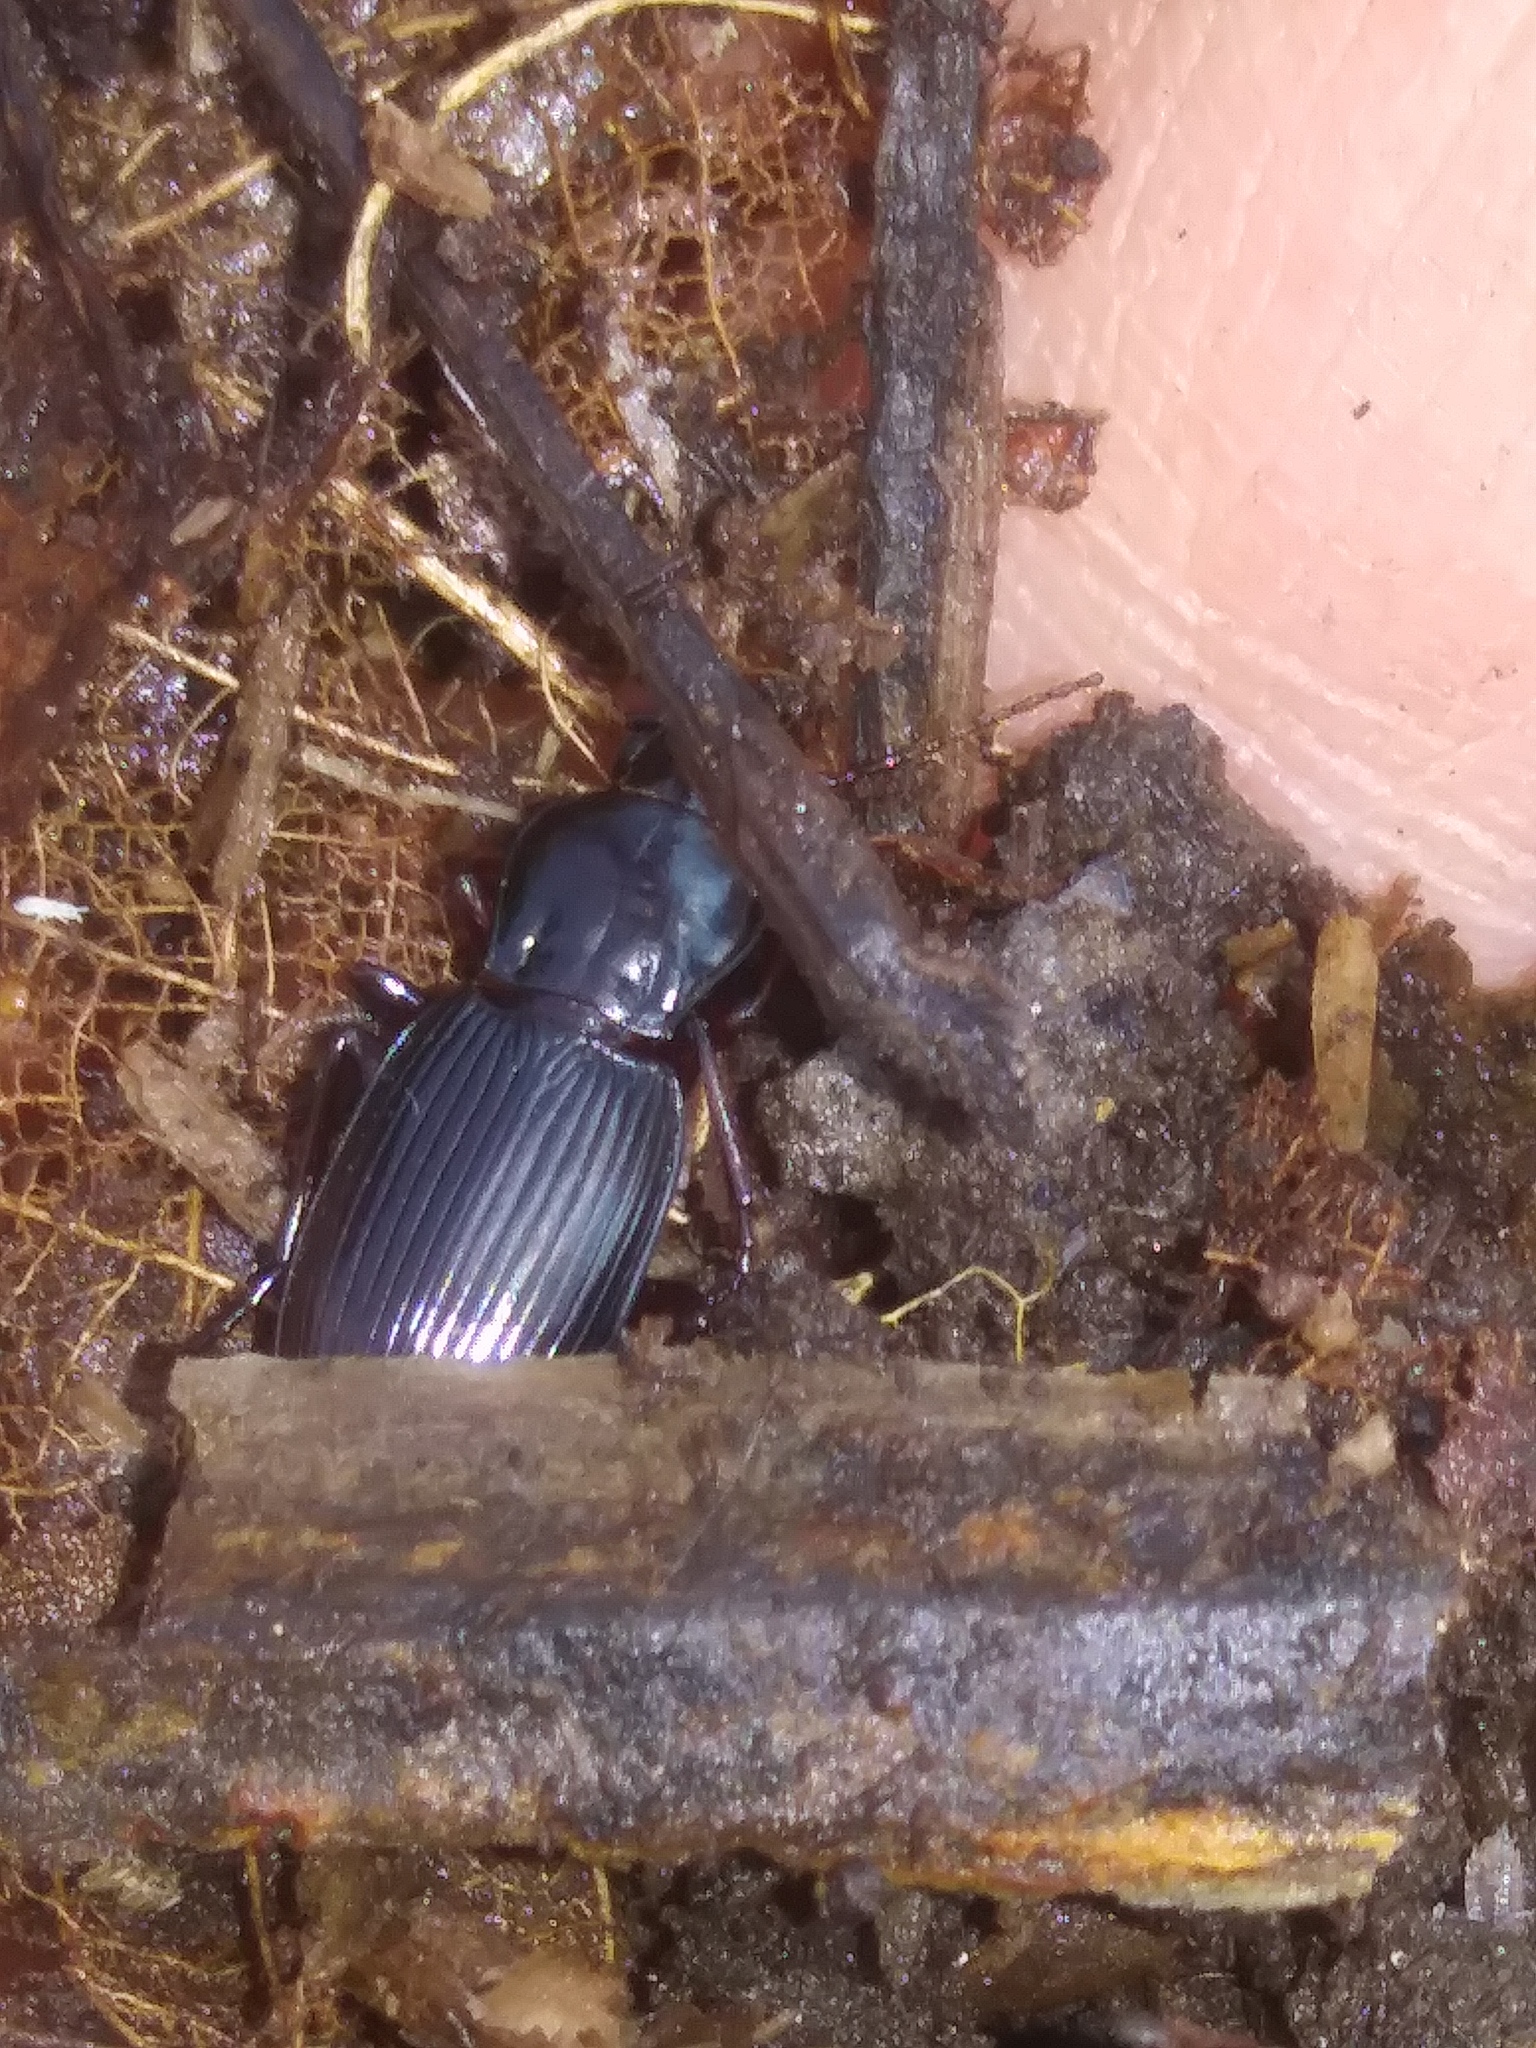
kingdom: Animalia
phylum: Arthropoda
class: Insecta
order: Coleoptera
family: Carabidae
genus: Pterostichus
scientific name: Pterostichus tristis
